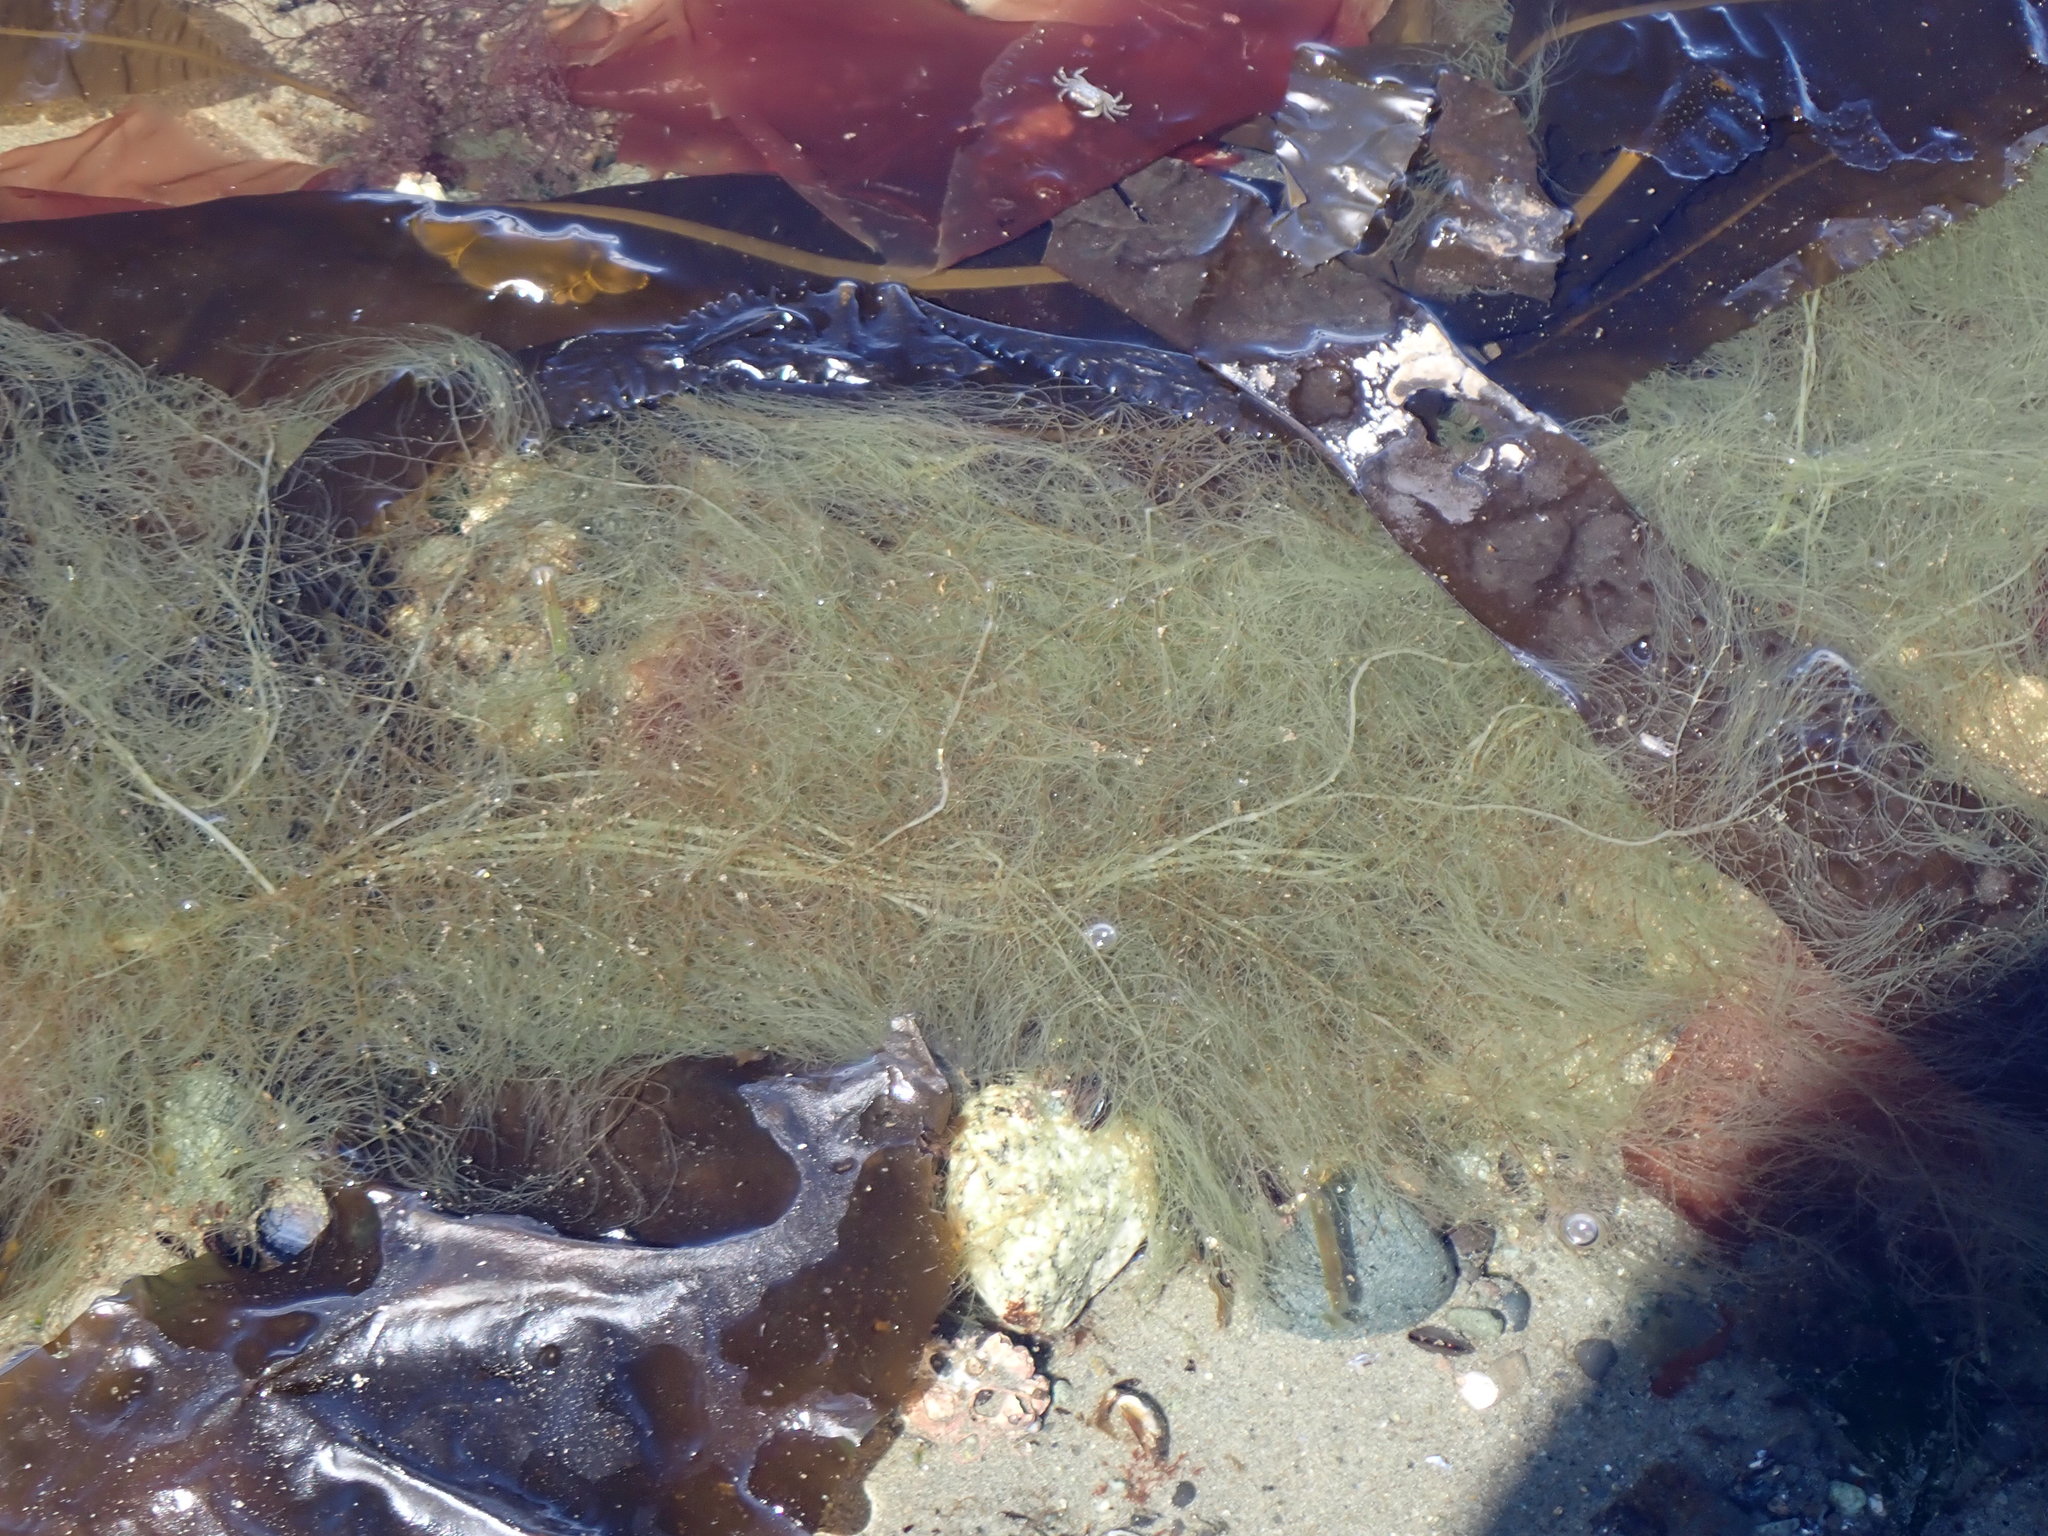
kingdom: Chromista
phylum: Ochrophyta
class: Phaeophyceae
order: Desmarestiales
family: Desmarestiaceae
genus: Desmarestia
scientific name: Desmarestia viridis
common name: Stringy acid kelp
